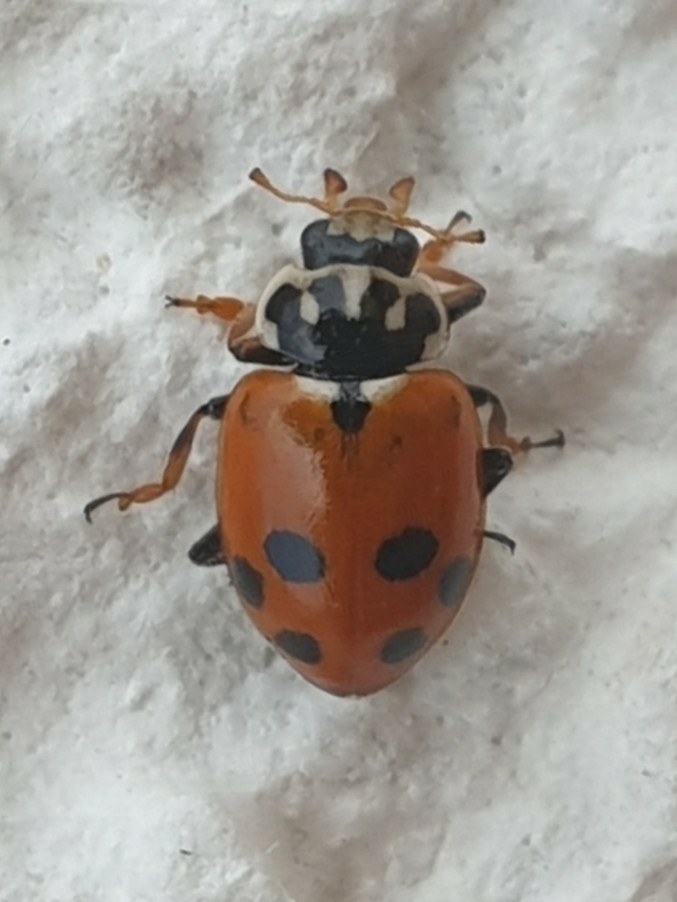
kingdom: Animalia
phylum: Arthropoda
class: Insecta
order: Coleoptera
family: Coccinellidae
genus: Hippodamia
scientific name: Hippodamia variegata
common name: Ladybird beetle
